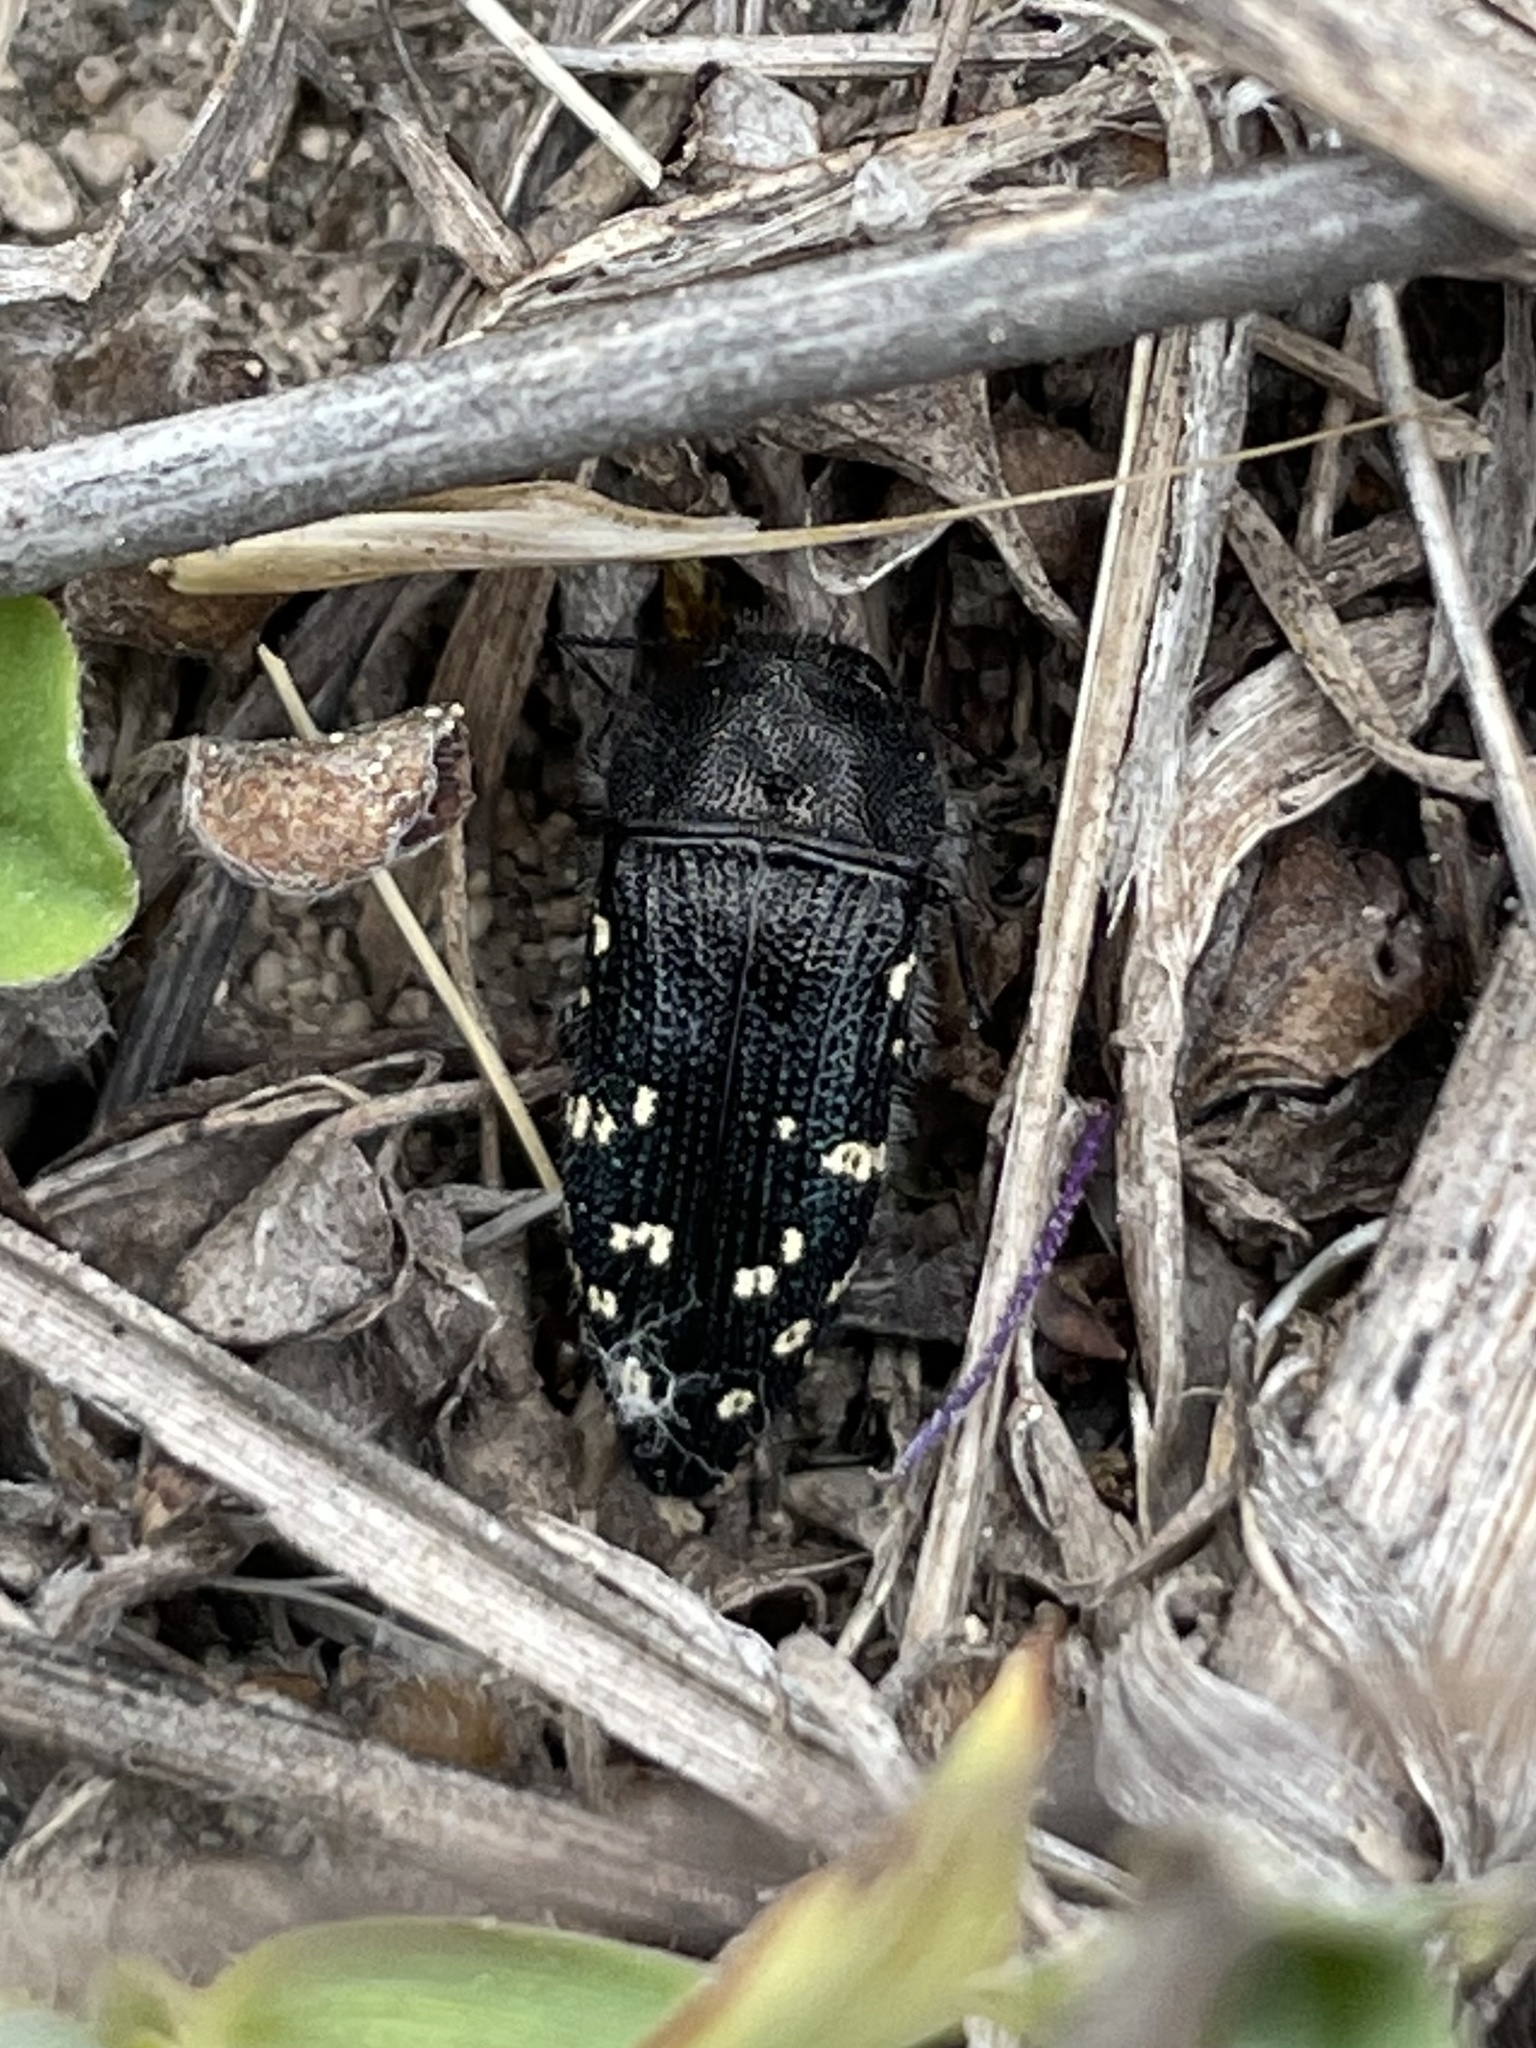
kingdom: Animalia
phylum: Arthropoda
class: Insecta
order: Coleoptera
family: Buprestidae
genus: Acmaeodera
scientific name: Acmaeodera ornatoides
